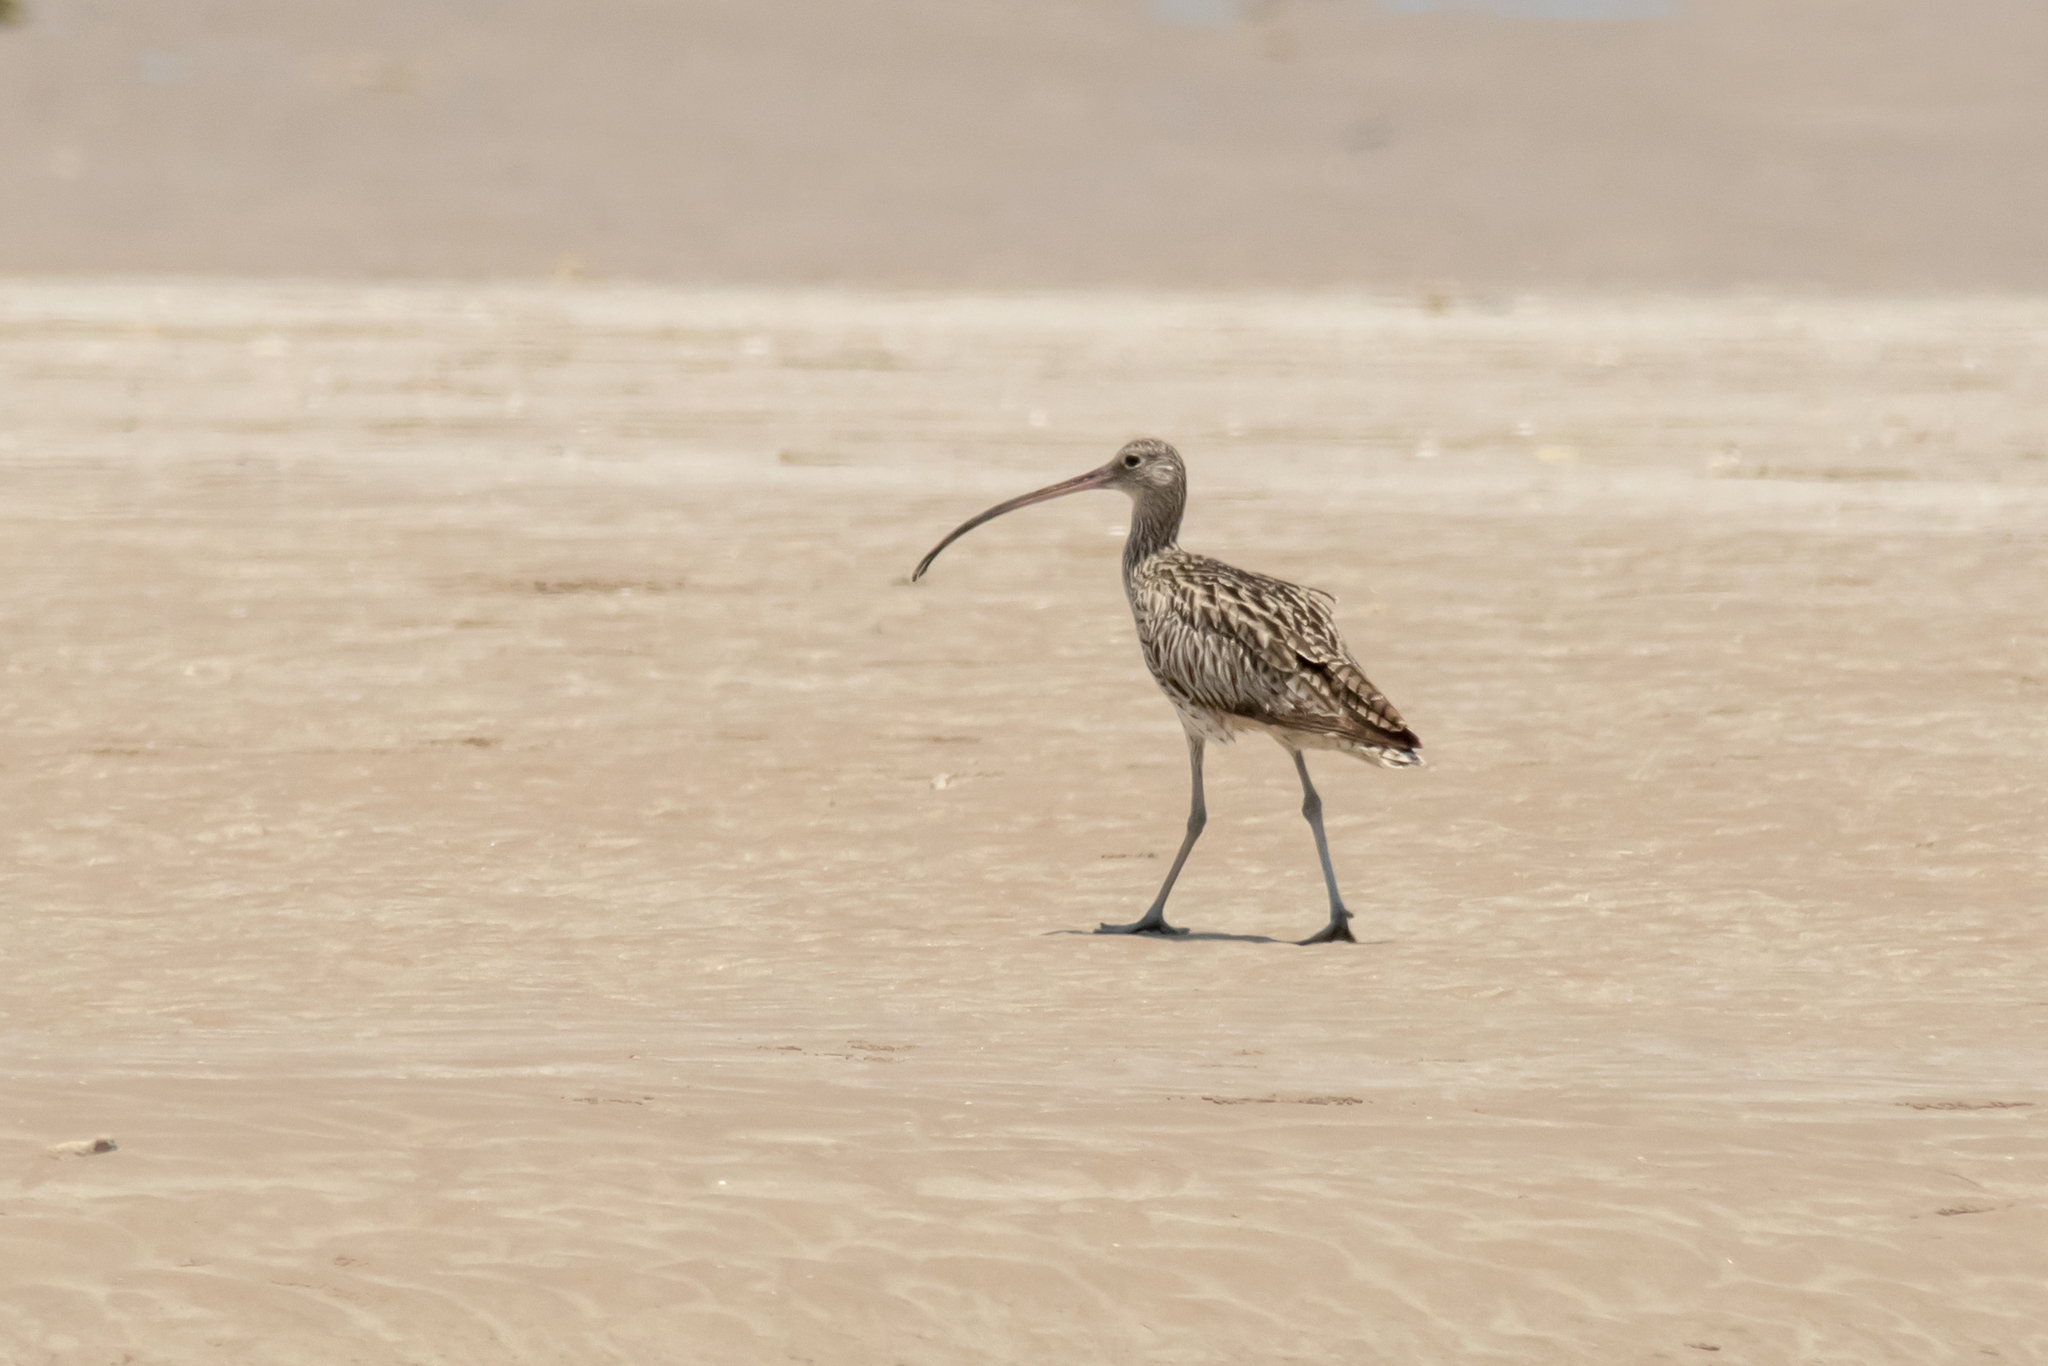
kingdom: Animalia
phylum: Chordata
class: Aves
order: Charadriiformes
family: Scolopacidae
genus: Numenius
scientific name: Numenius madagascariensis
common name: Far eastern curlew
